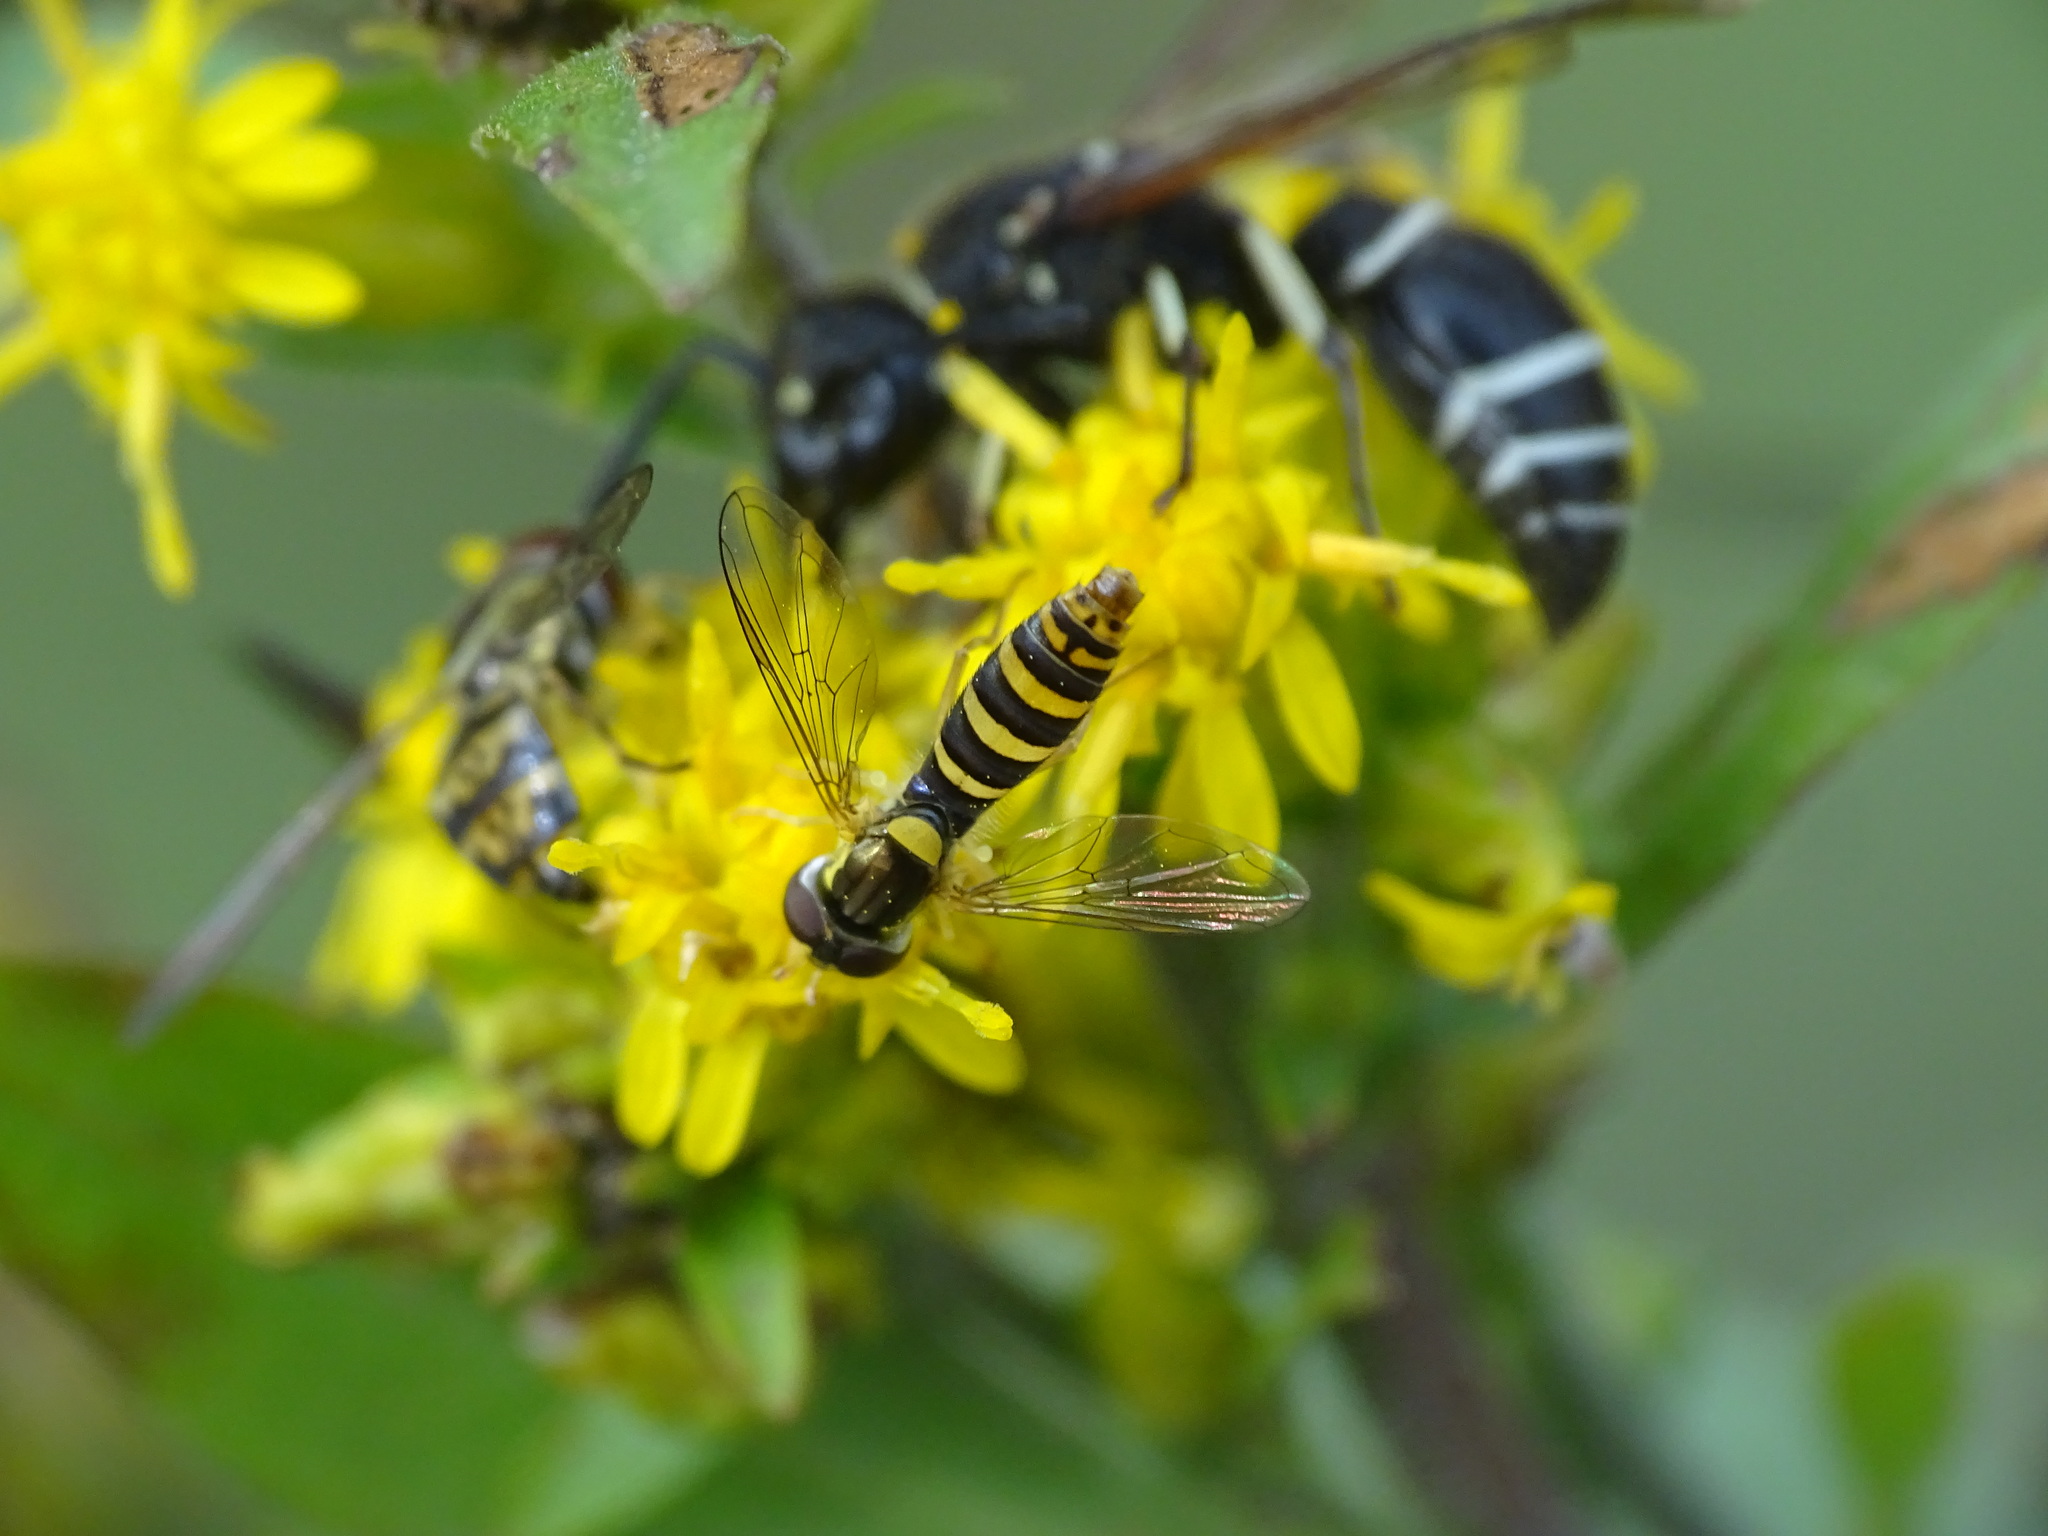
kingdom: Animalia
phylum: Arthropoda
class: Insecta
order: Diptera
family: Syrphidae
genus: Sphaerophoria
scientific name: Sphaerophoria
